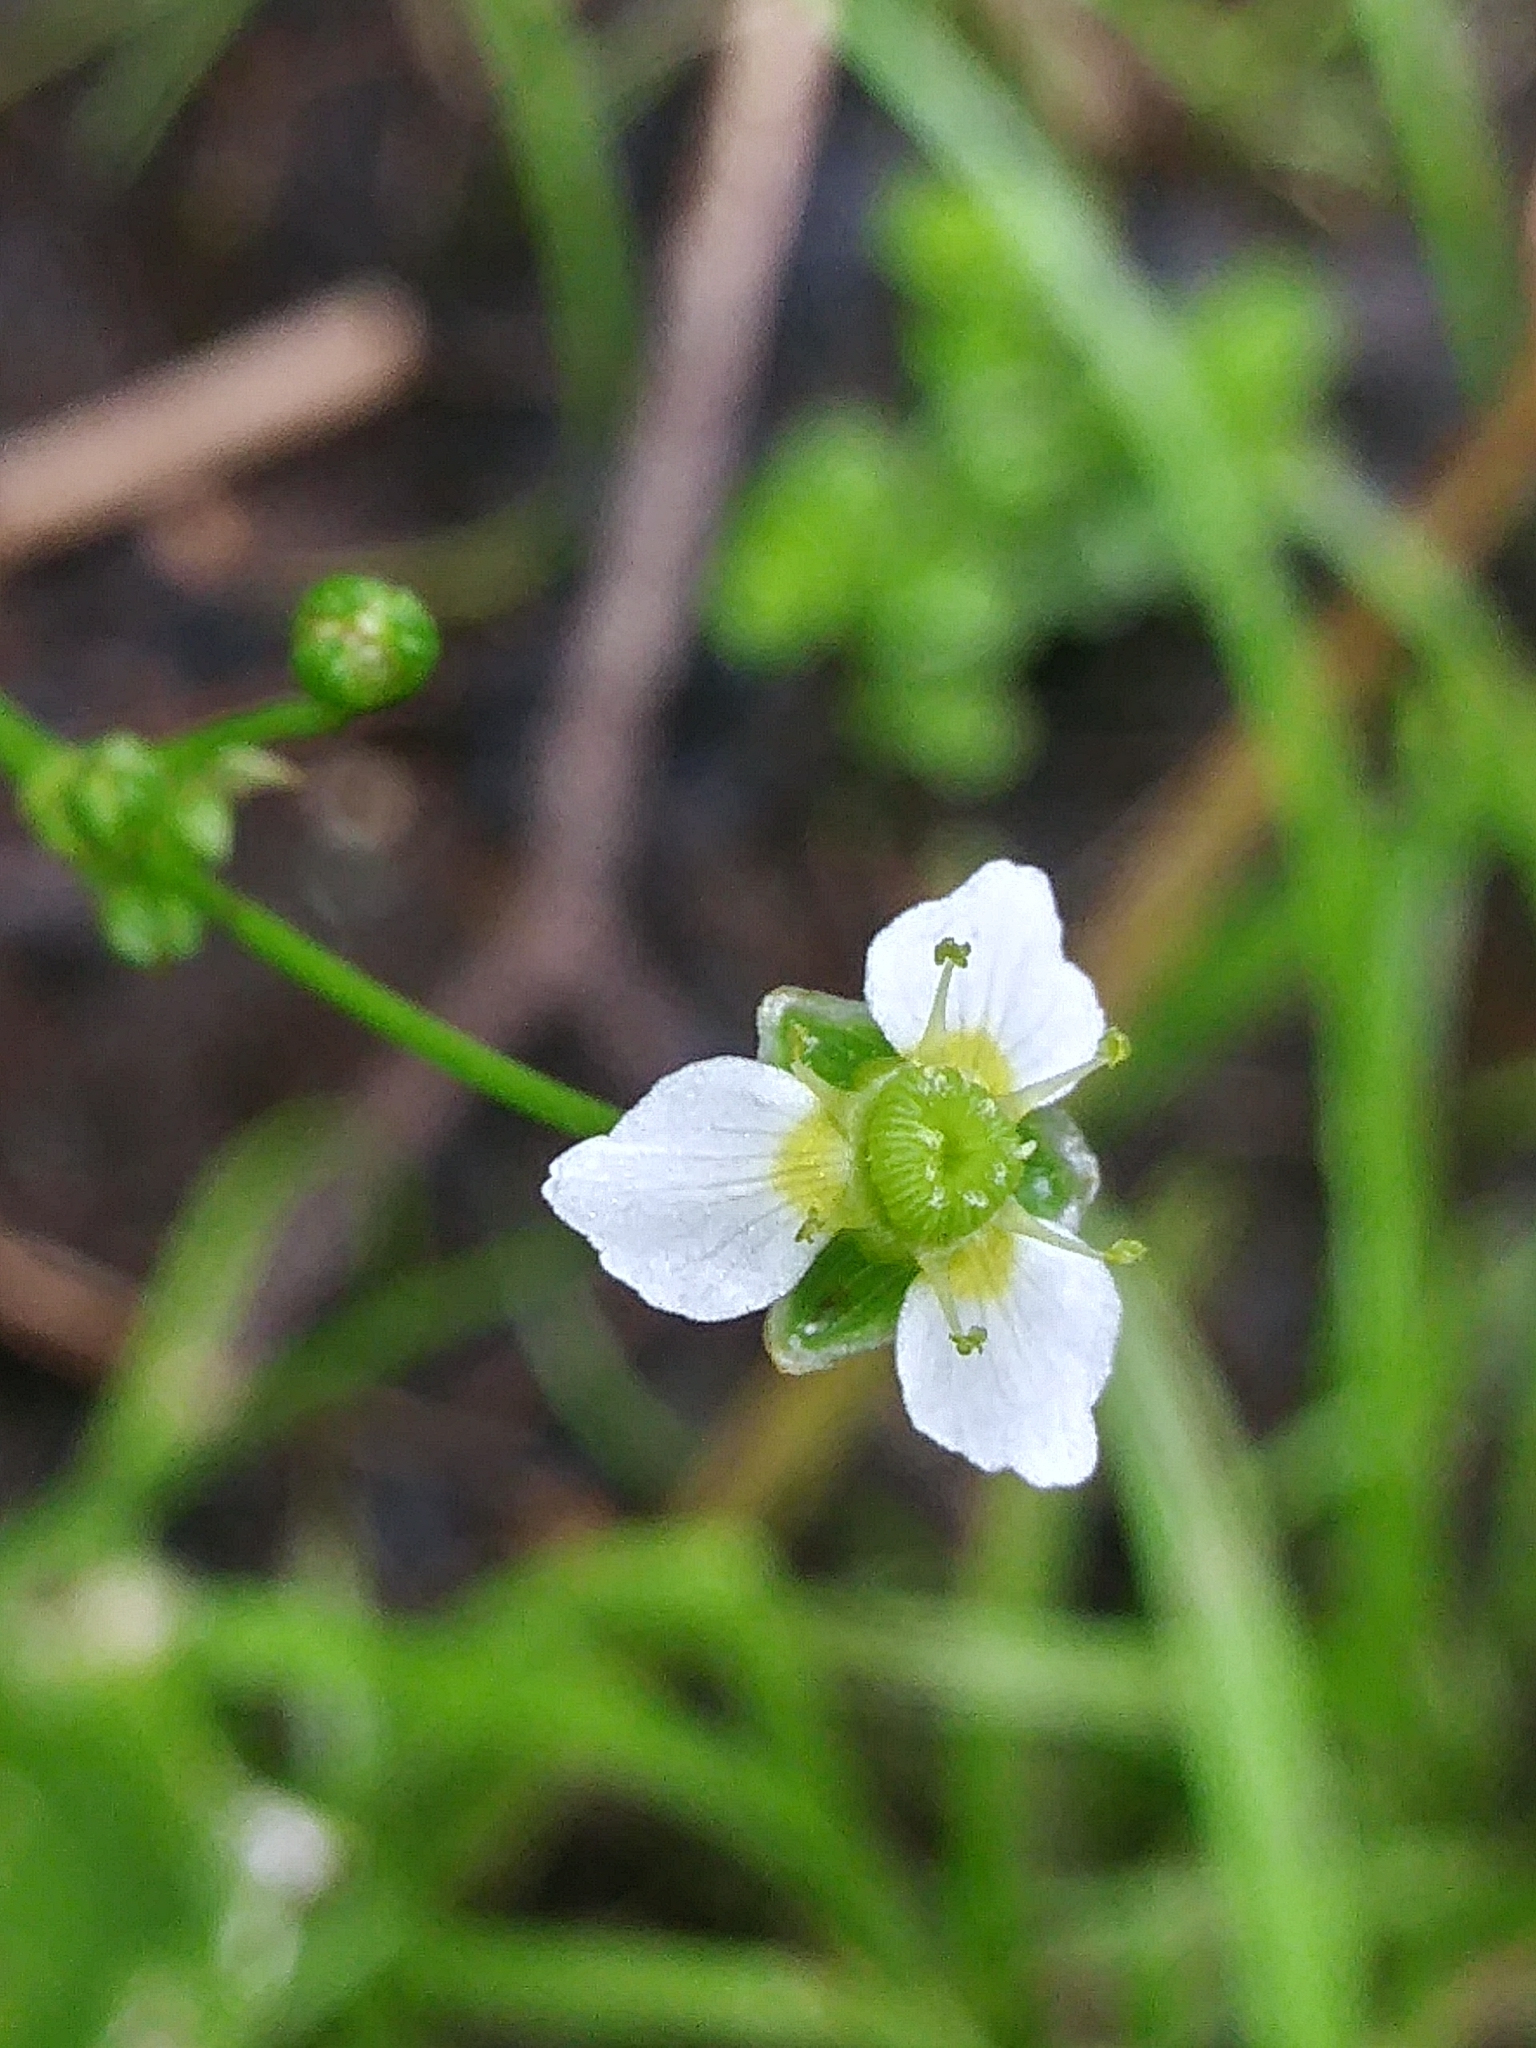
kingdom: Plantae
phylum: Tracheophyta
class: Liliopsida
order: Alismatales
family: Alismataceae
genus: Alisma
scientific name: Alisma triviale
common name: Northern water-plantain
